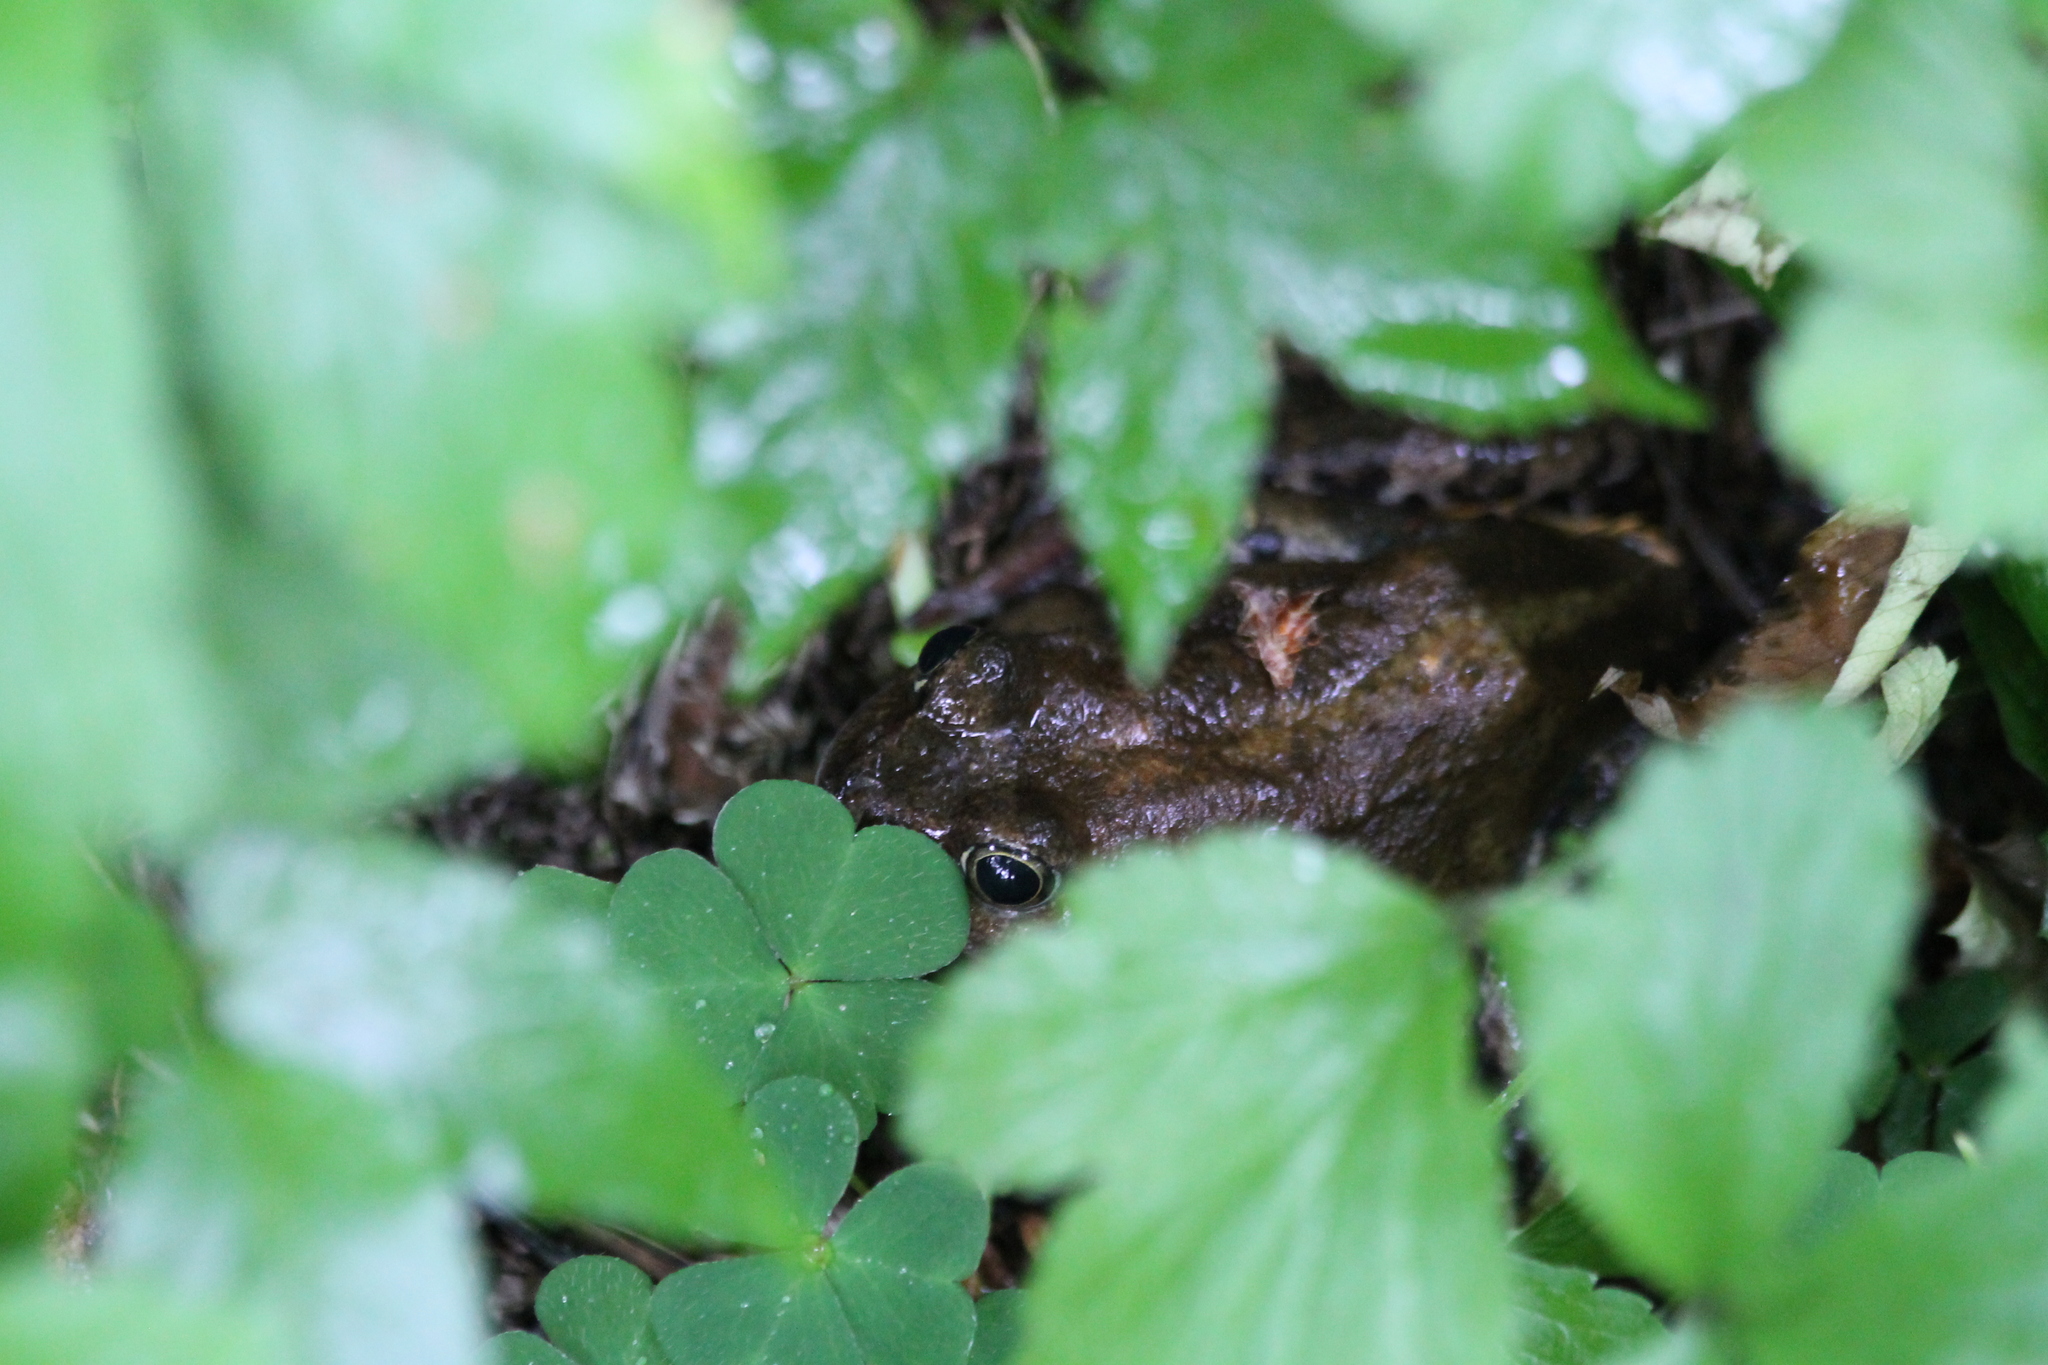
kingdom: Animalia
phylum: Chordata
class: Amphibia
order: Anura
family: Ranidae
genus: Rana
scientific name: Rana temporaria
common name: Common frog
